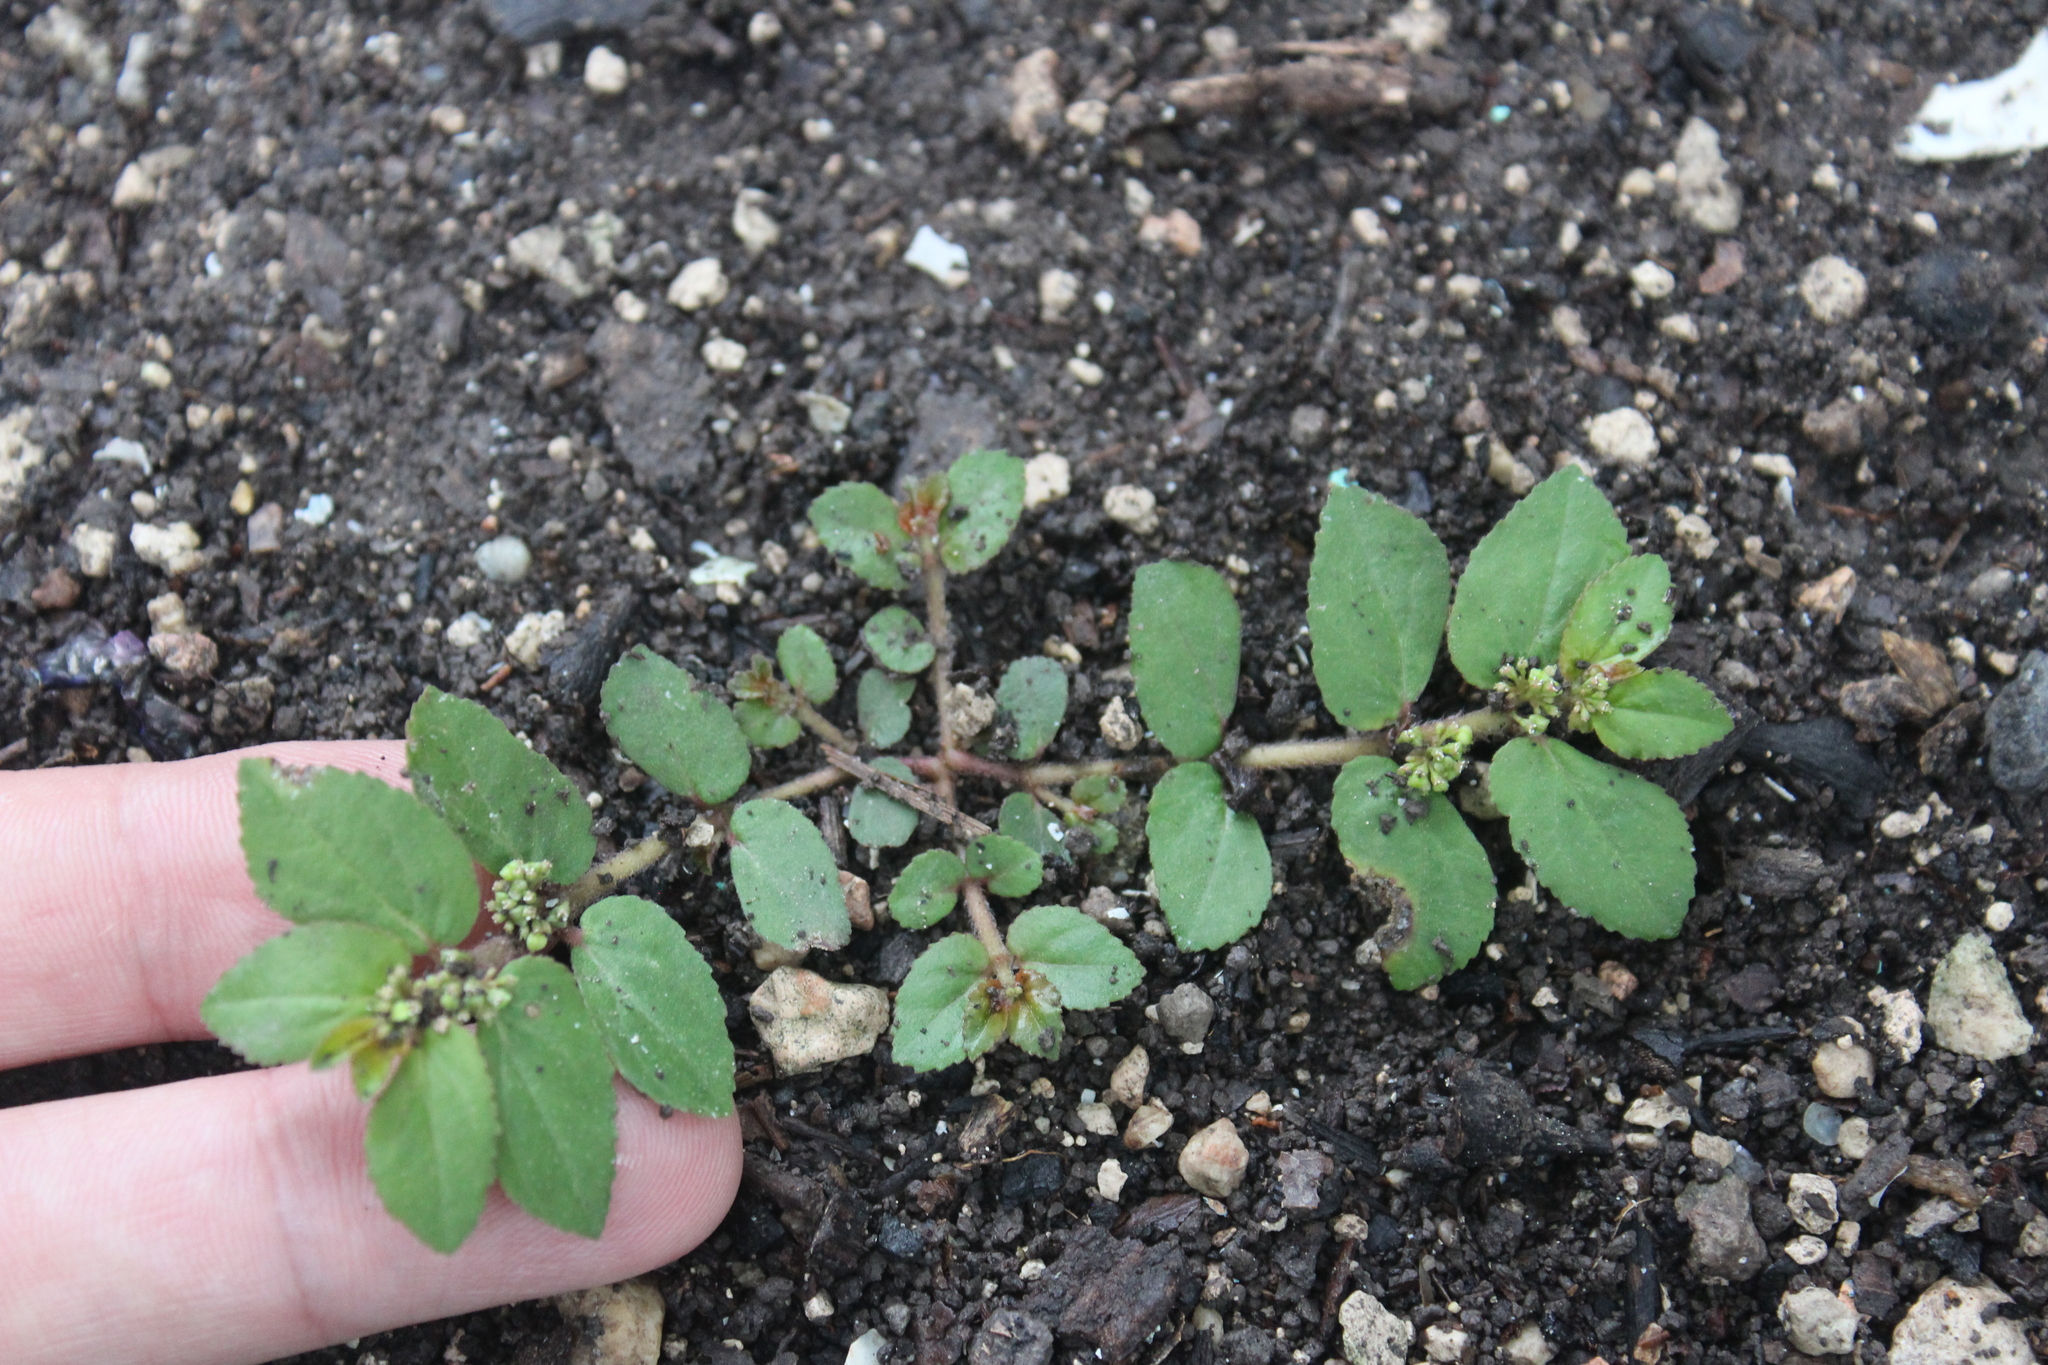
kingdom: Plantae
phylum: Tracheophyta
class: Magnoliopsida
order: Malpighiales
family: Euphorbiaceae
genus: Euphorbia
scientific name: Euphorbia hirta
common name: Pillpod sandmat
